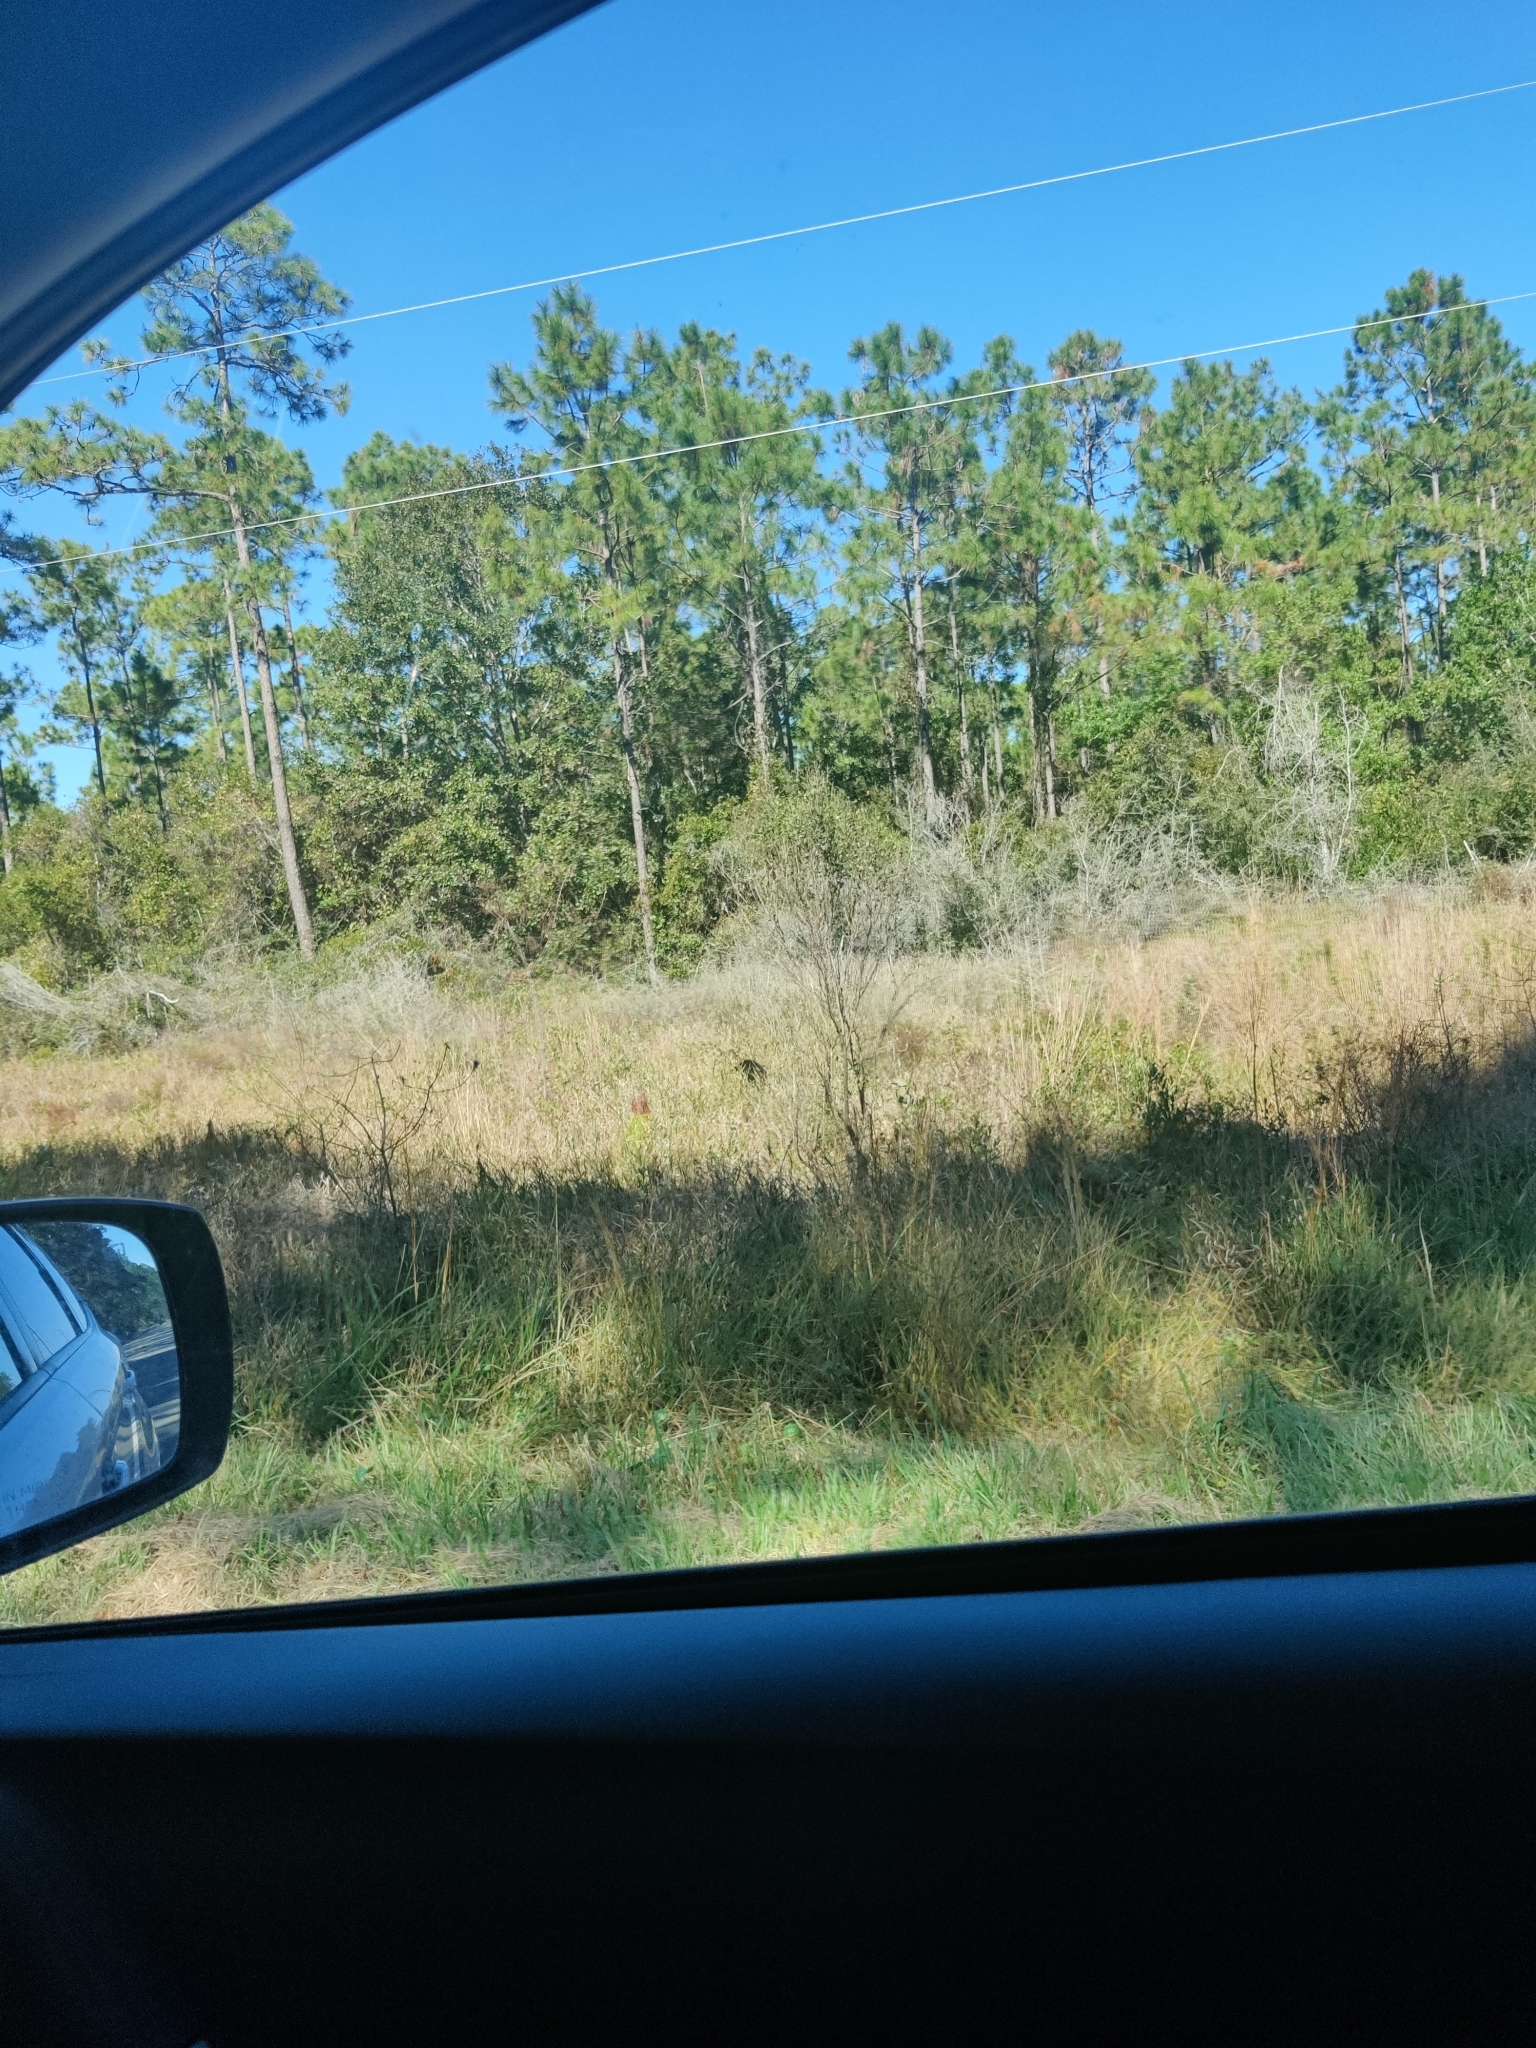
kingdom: Animalia
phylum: Chordata
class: Mammalia
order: Carnivora
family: Ursidae
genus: Ursus
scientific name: Ursus americanus
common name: American black bear
